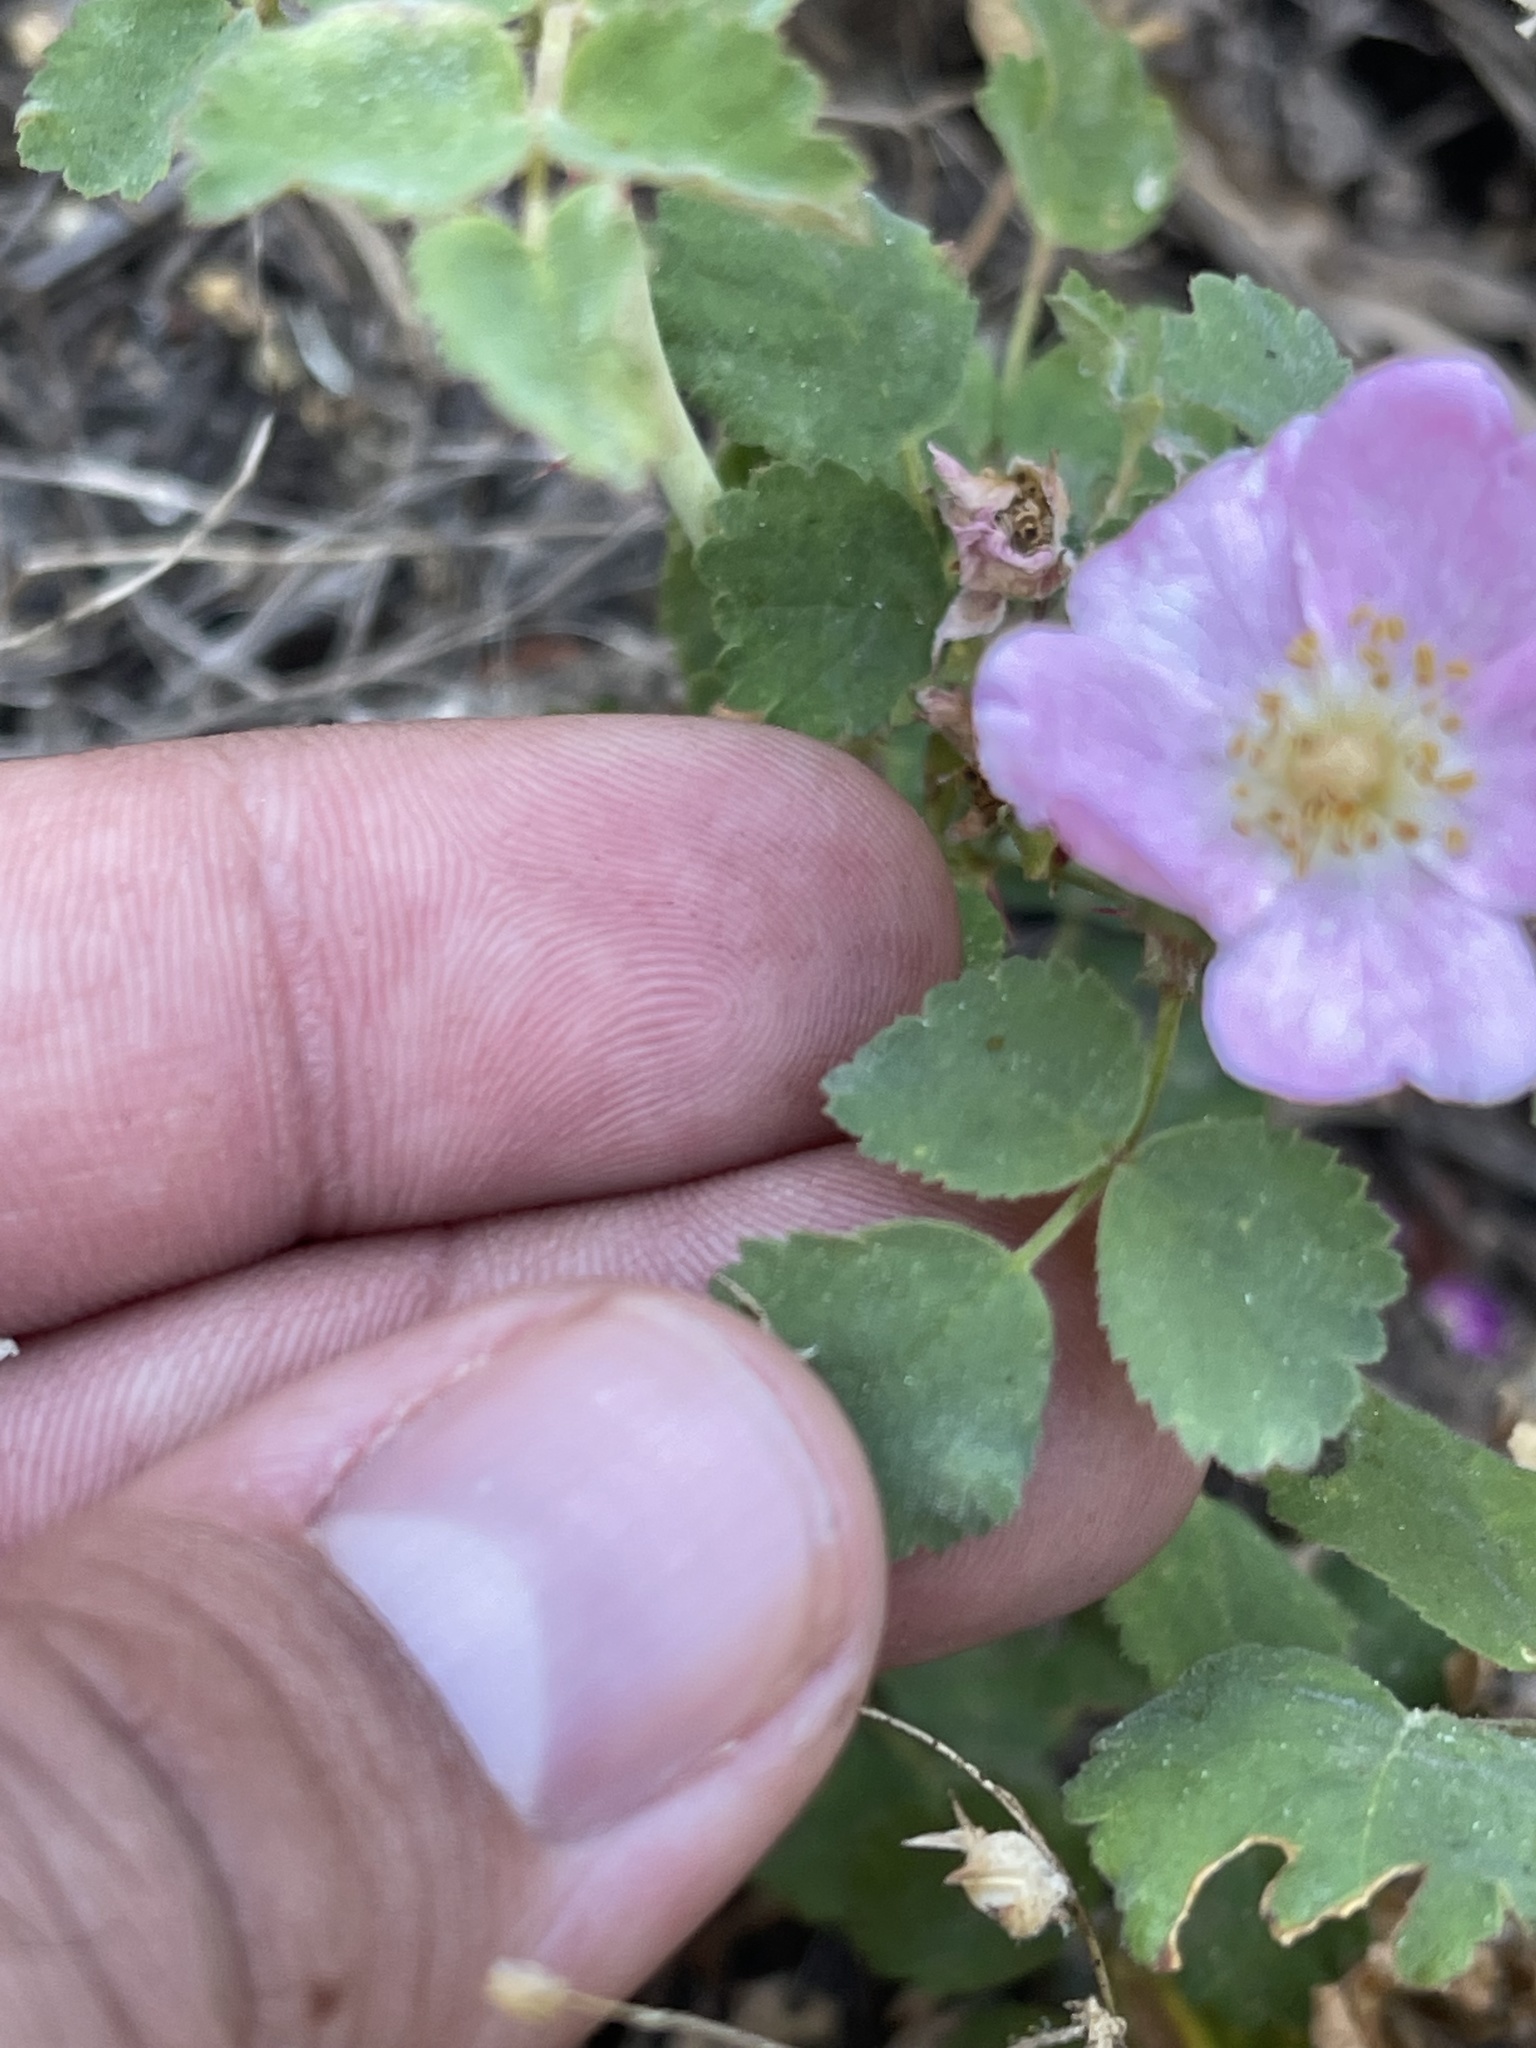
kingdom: Plantae
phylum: Tracheophyta
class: Magnoliopsida
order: Rosales
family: Rosaceae
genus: Rosa
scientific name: Rosa woodsii
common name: Woods's rose
